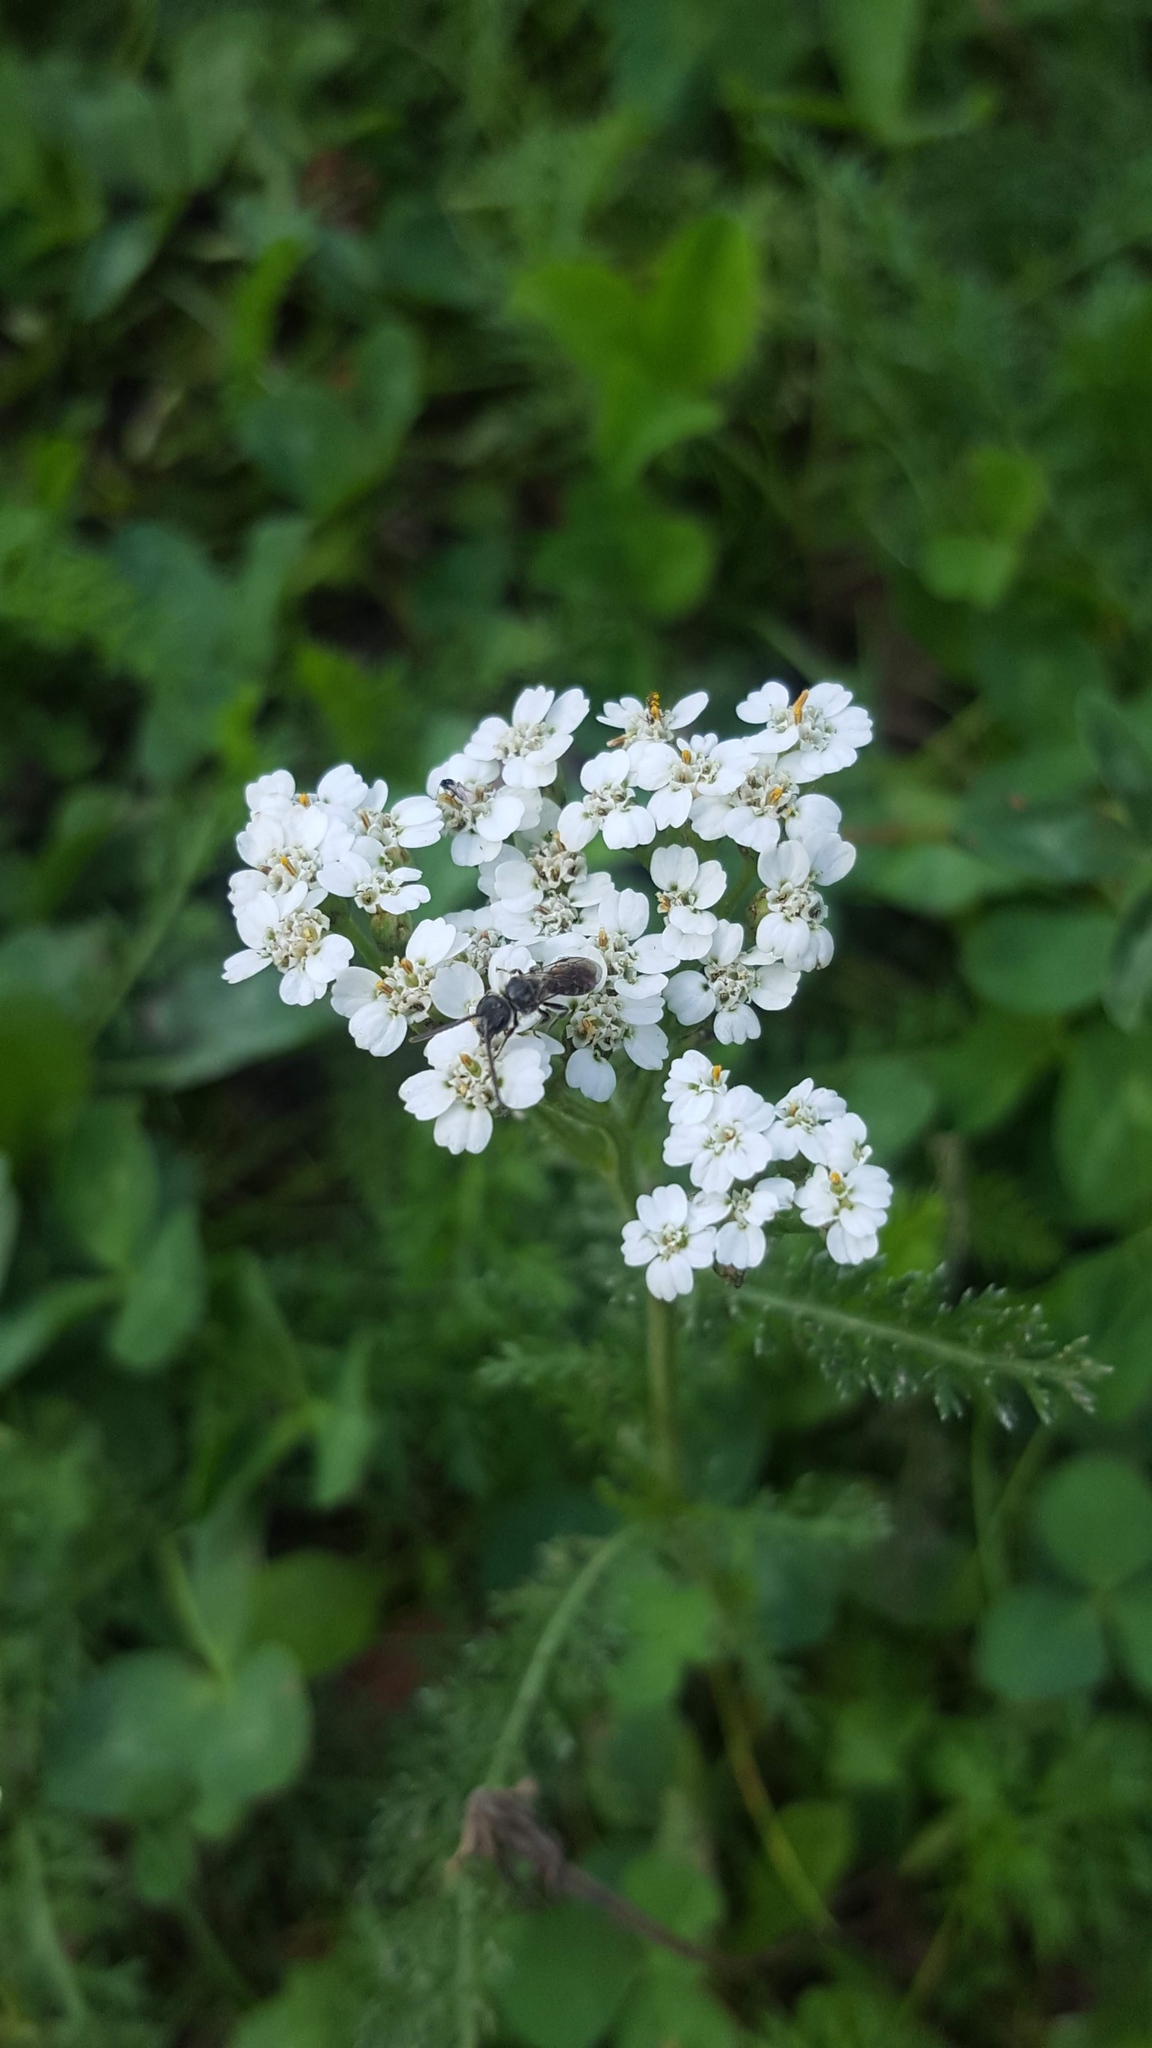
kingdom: Plantae
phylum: Tracheophyta
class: Magnoliopsida
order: Asterales
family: Asteraceae
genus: Achillea
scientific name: Achillea millefolium
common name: Yarrow
